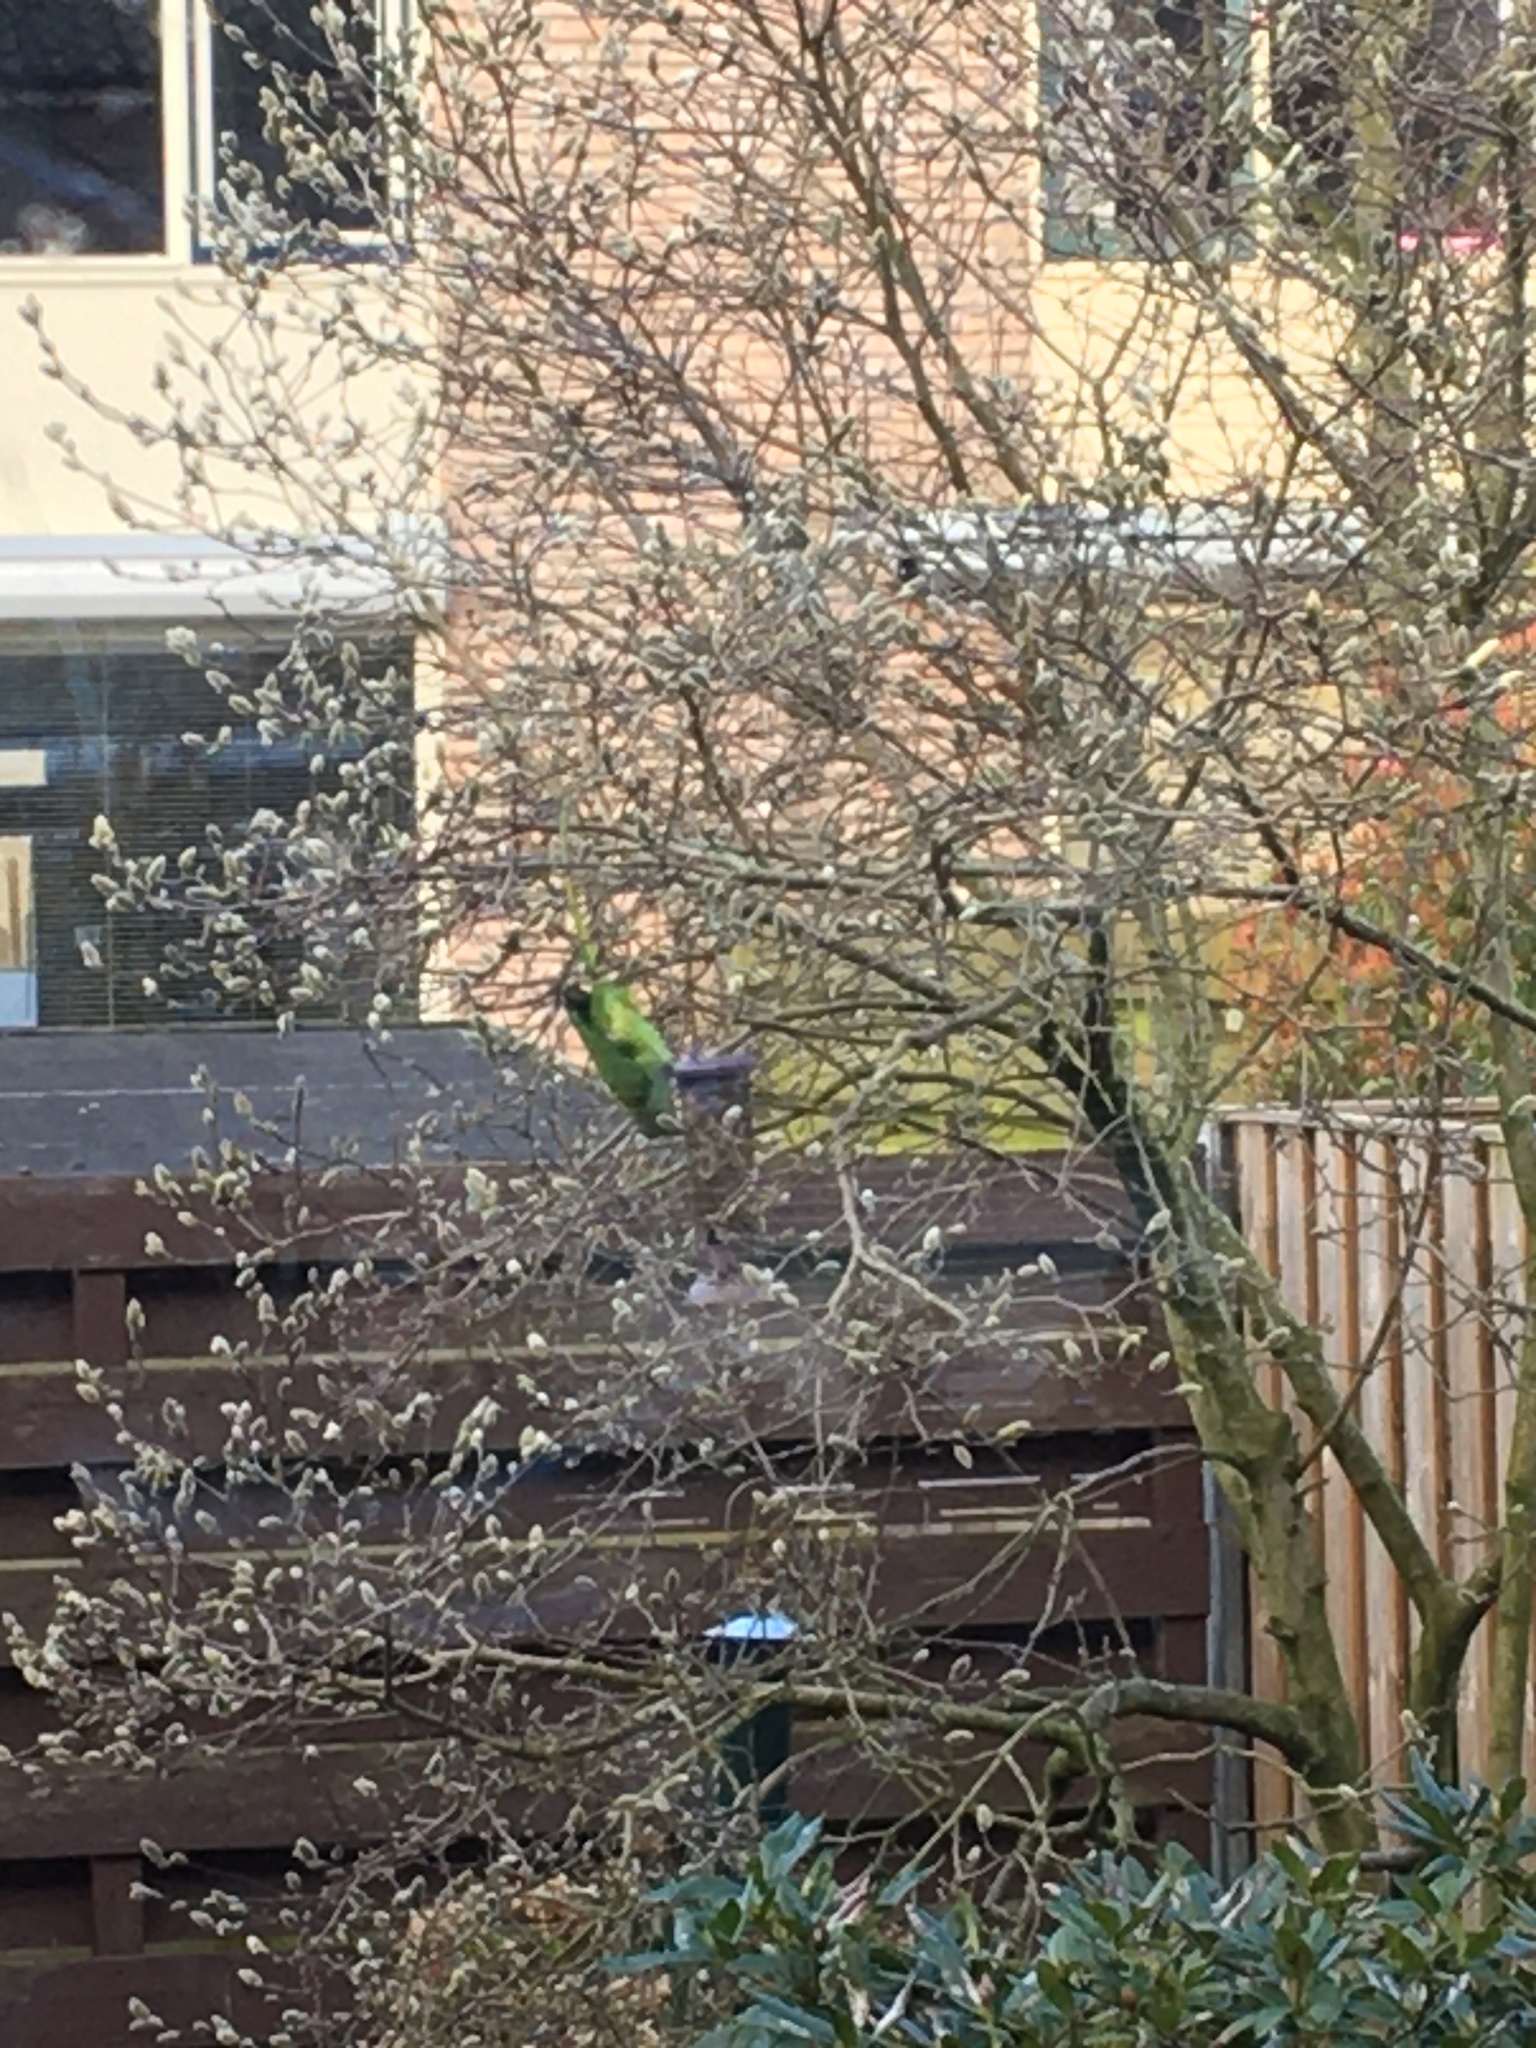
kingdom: Animalia
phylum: Chordata
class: Aves
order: Psittaciformes
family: Psittacidae
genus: Psittacula
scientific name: Psittacula krameri
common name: Rose-ringed parakeet
